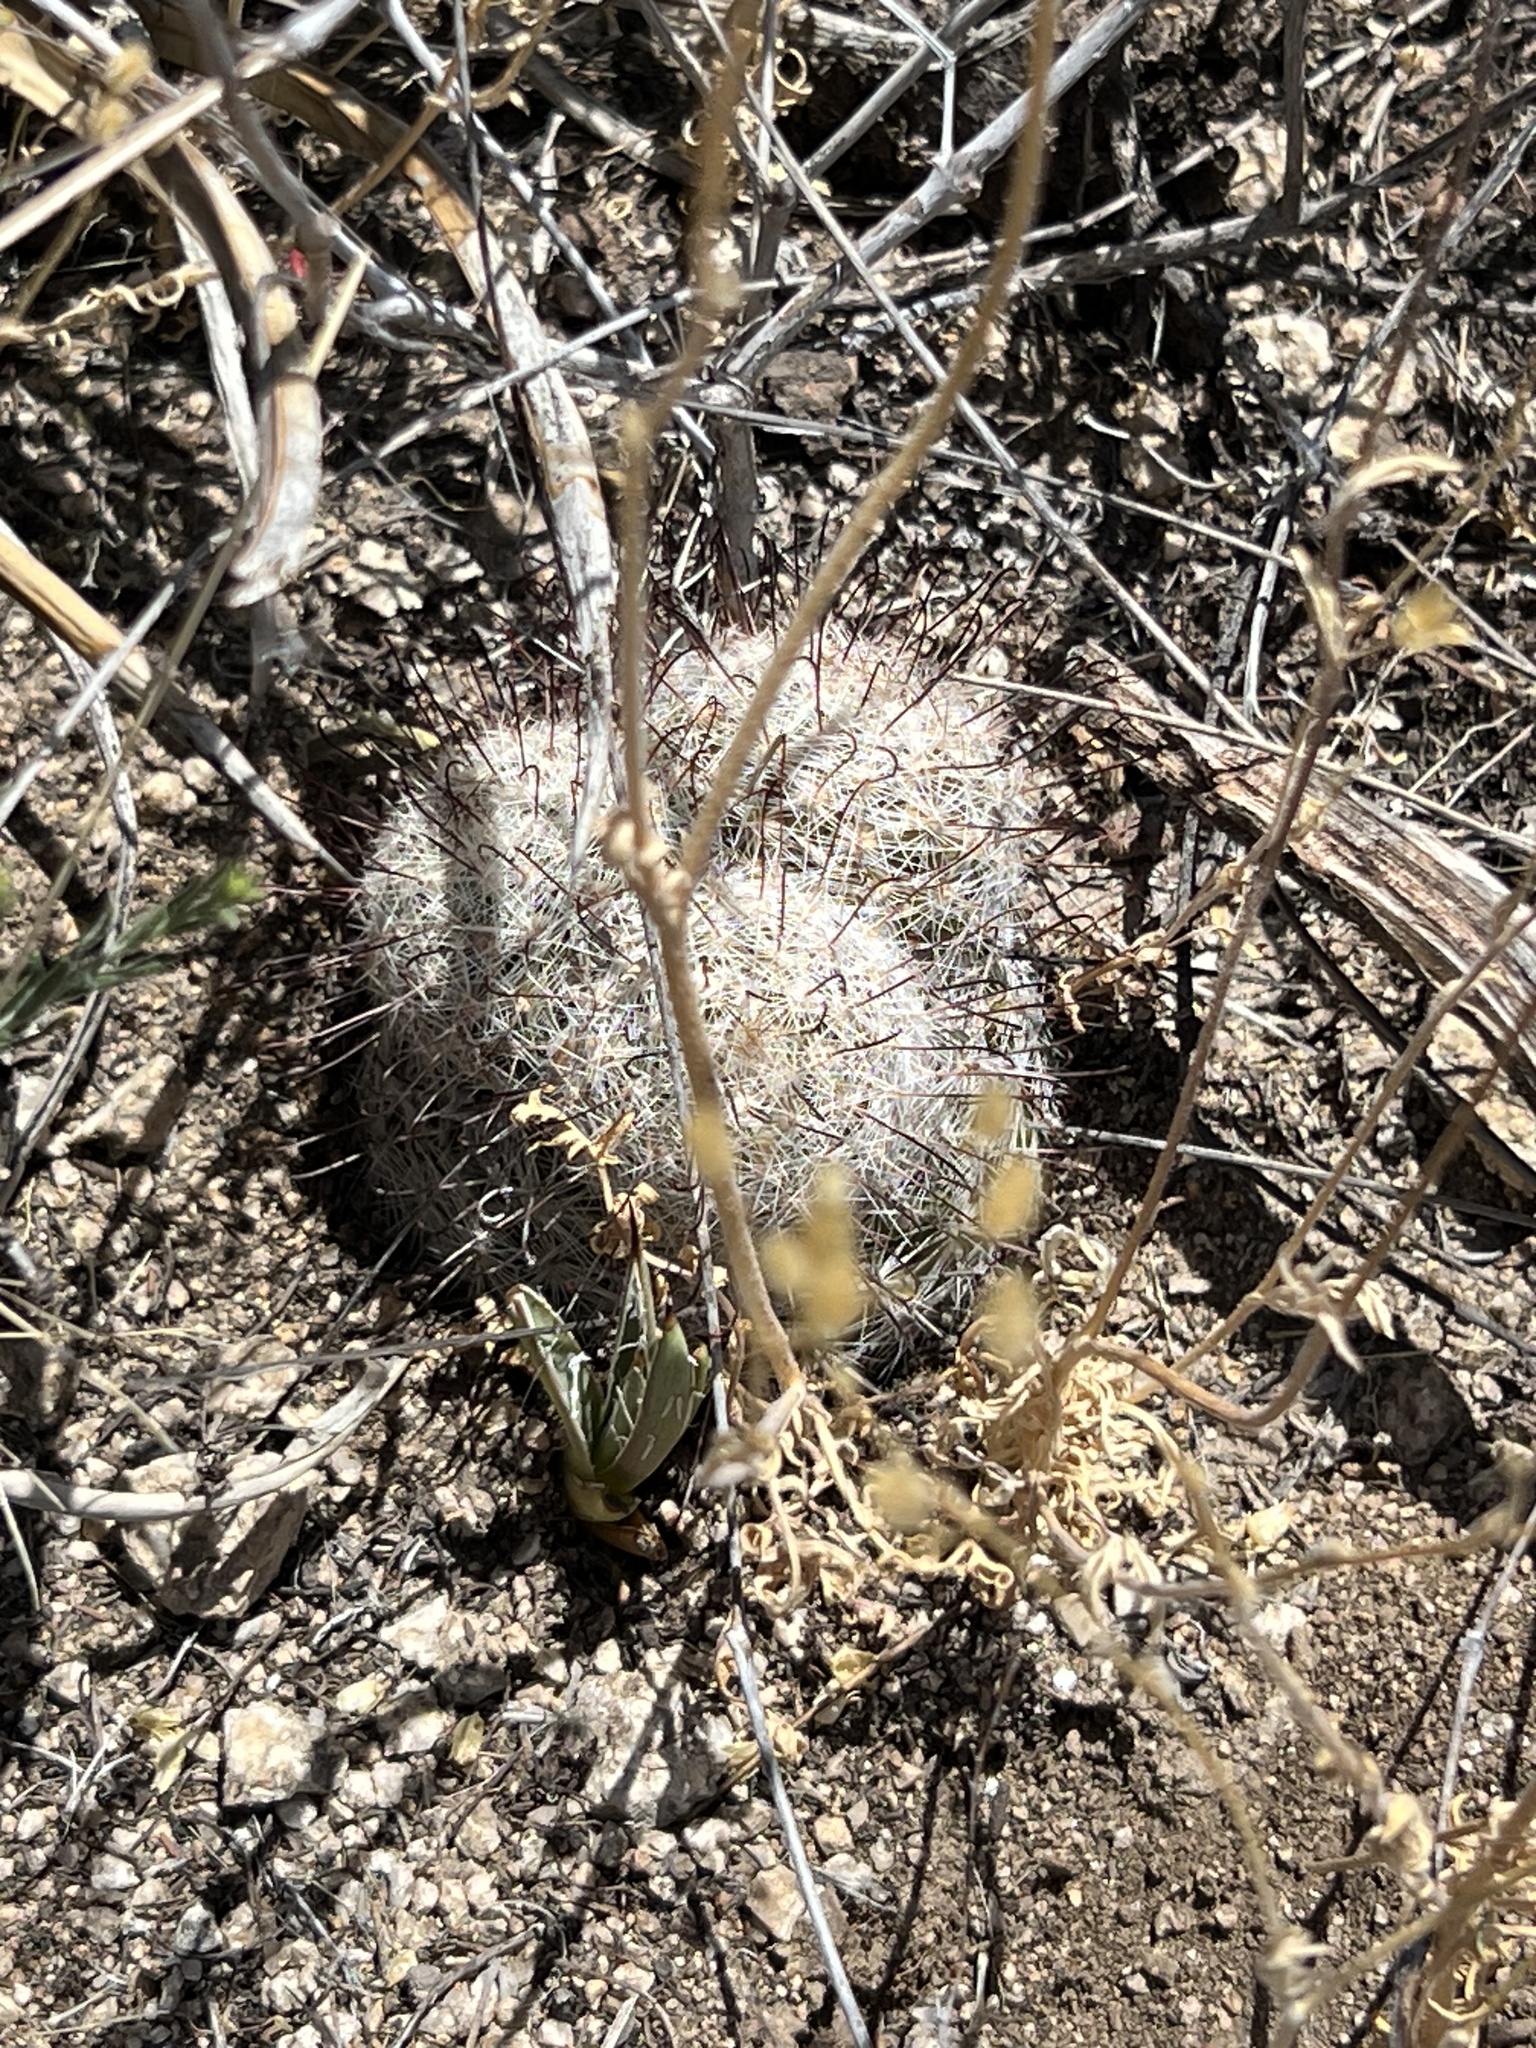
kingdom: Plantae
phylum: Tracheophyta
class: Magnoliopsida
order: Caryophyllales
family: Cactaceae
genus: Cochemiea
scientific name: Cochemiea grahamii
